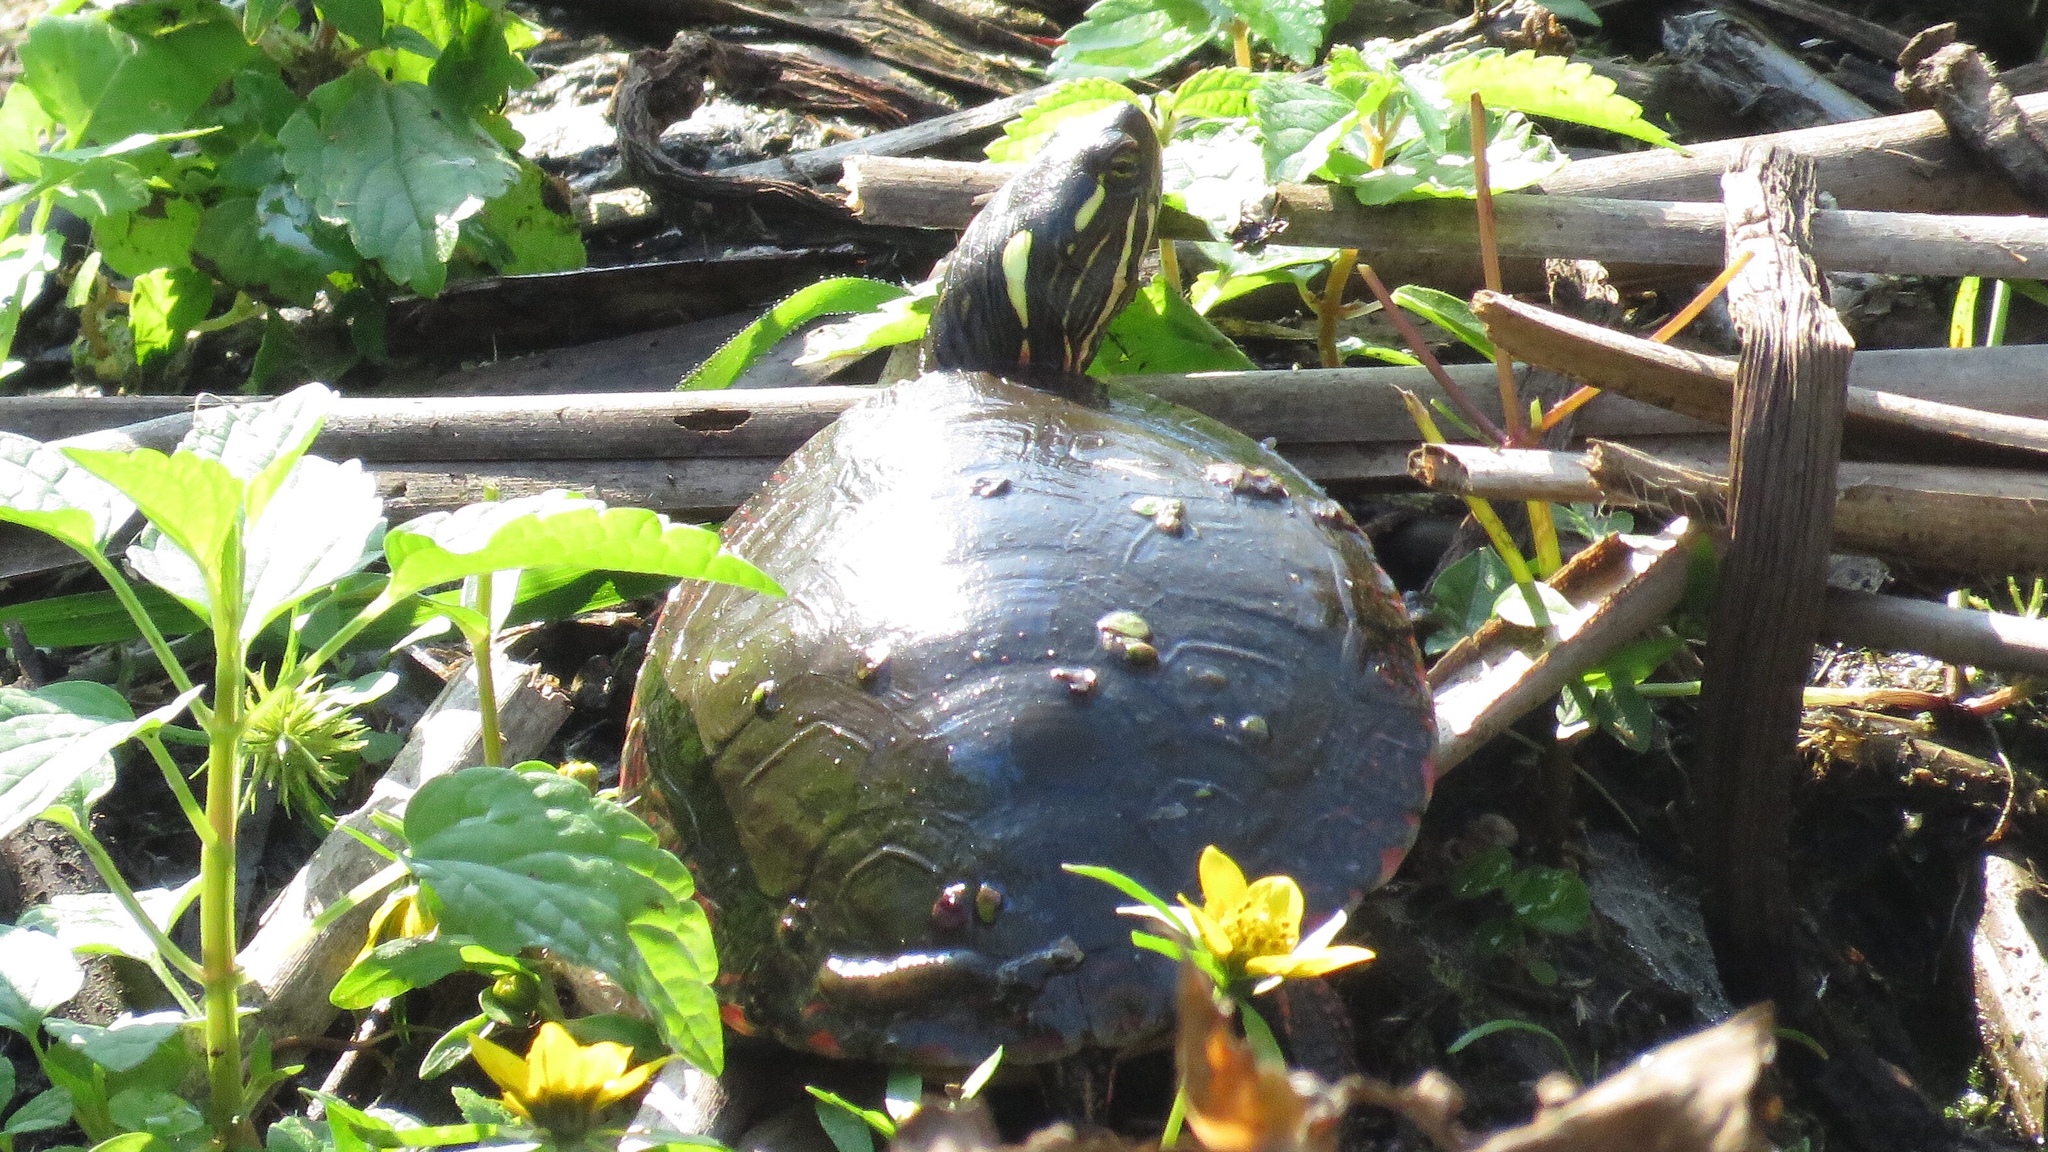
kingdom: Animalia
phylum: Chordata
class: Testudines
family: Emydidae
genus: Chrysemys
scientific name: Chrysemys picta
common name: Painted turtle
